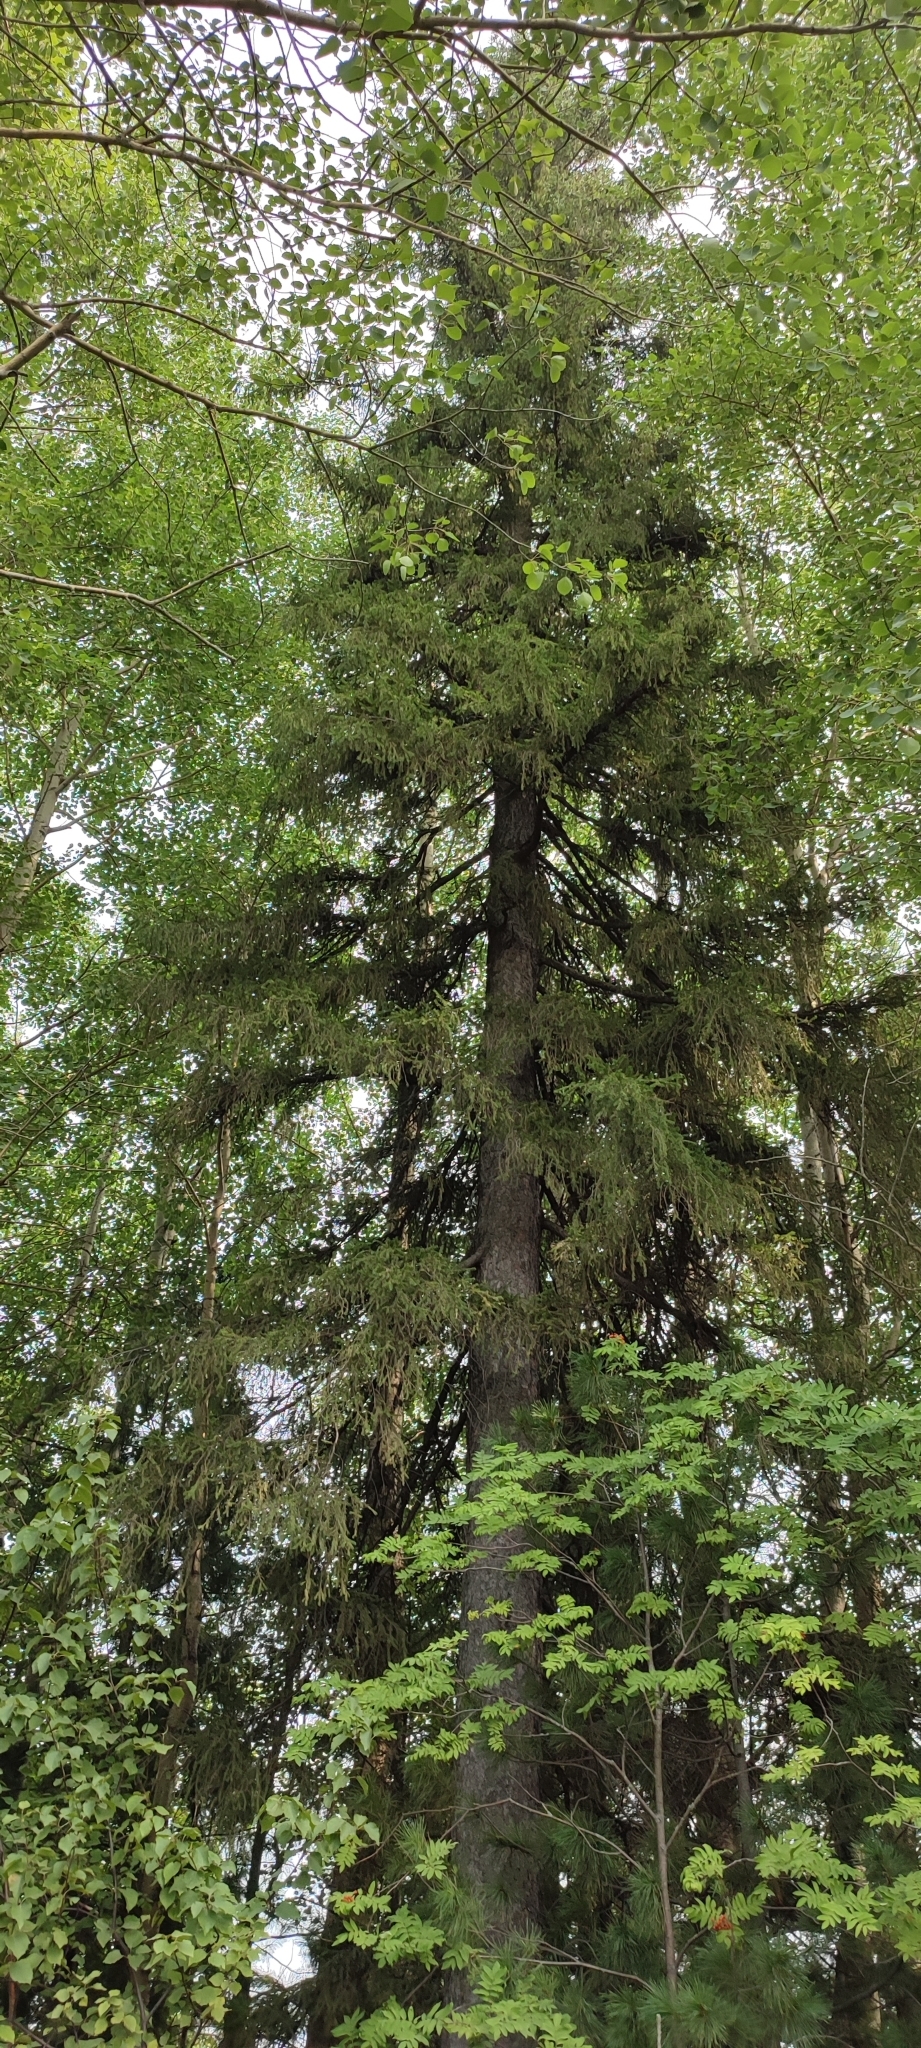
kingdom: Plantae
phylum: Tracheophyta
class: Pinopsida
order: Pinales
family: Pinaceae
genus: Picea
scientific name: Picea obovata
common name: Siberian spruce
